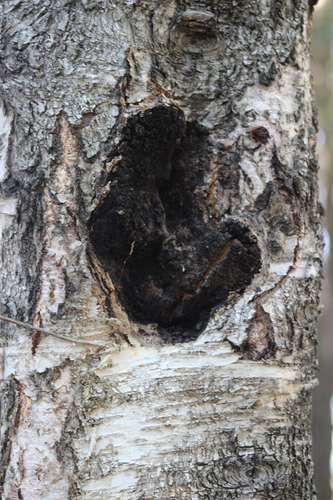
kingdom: Fungi
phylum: Basidiomycota
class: Agaricomycetes
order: Hymenochaetales
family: Hymenochaetaceae
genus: Inonotus
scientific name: Inonotus obliquus
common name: Chaga
